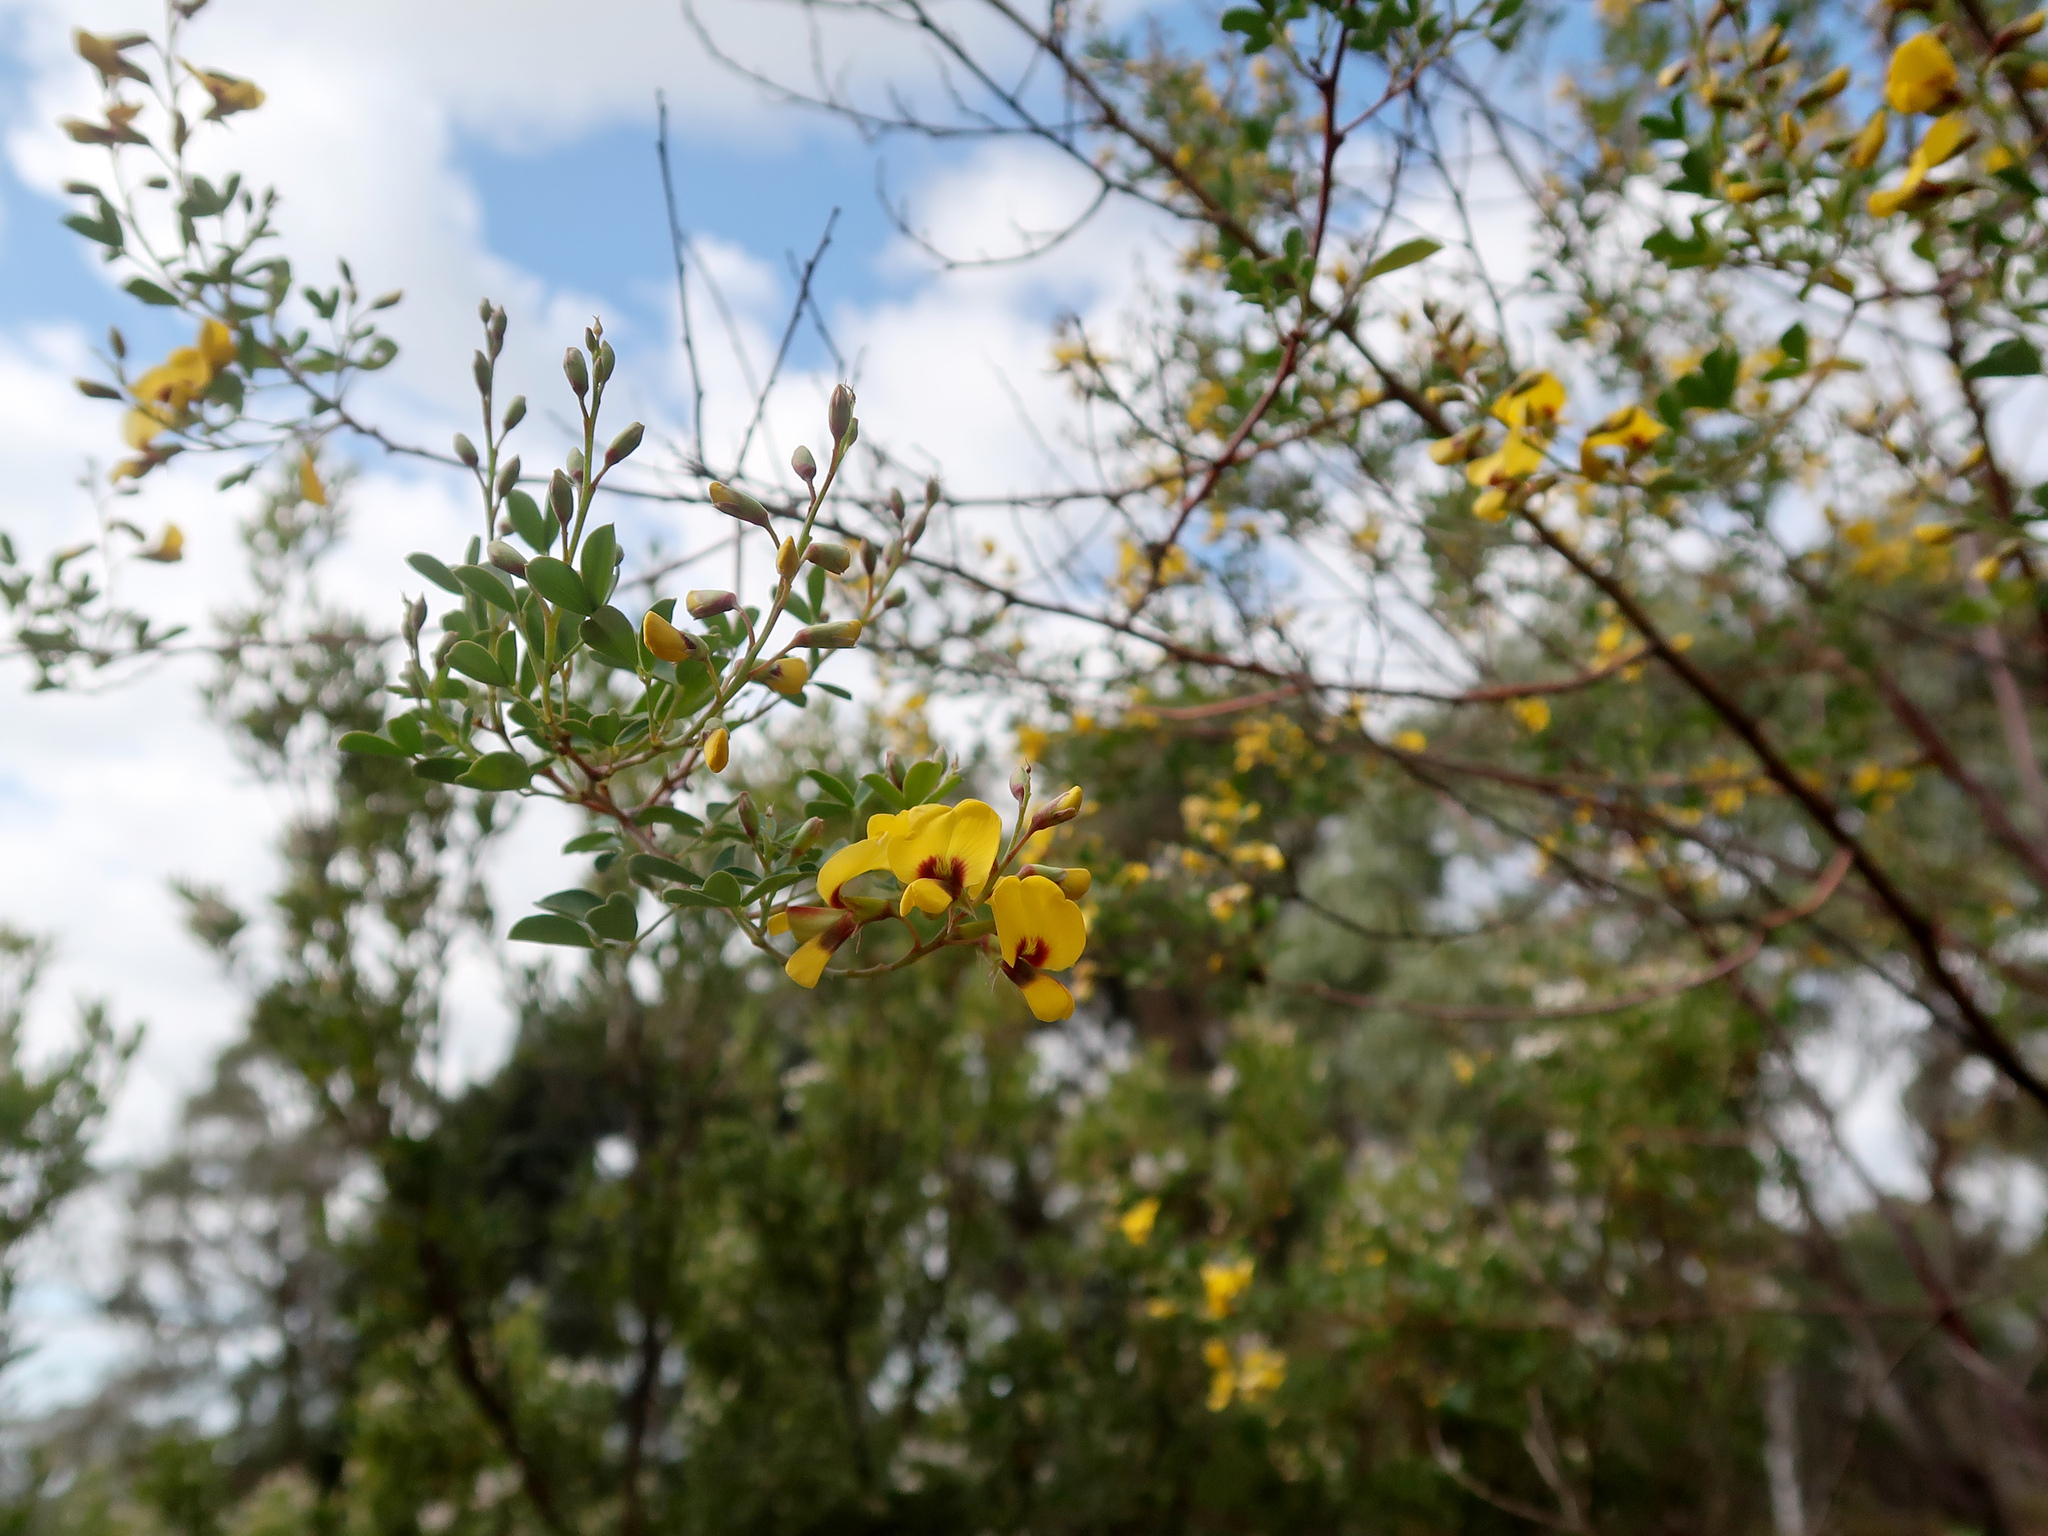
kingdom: Plantae
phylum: Tracheophyta
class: Magnoliopsida
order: Fabales
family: Fabaceae
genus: Goodia
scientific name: Goodia lotifolia
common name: Cloverleaf-poison
